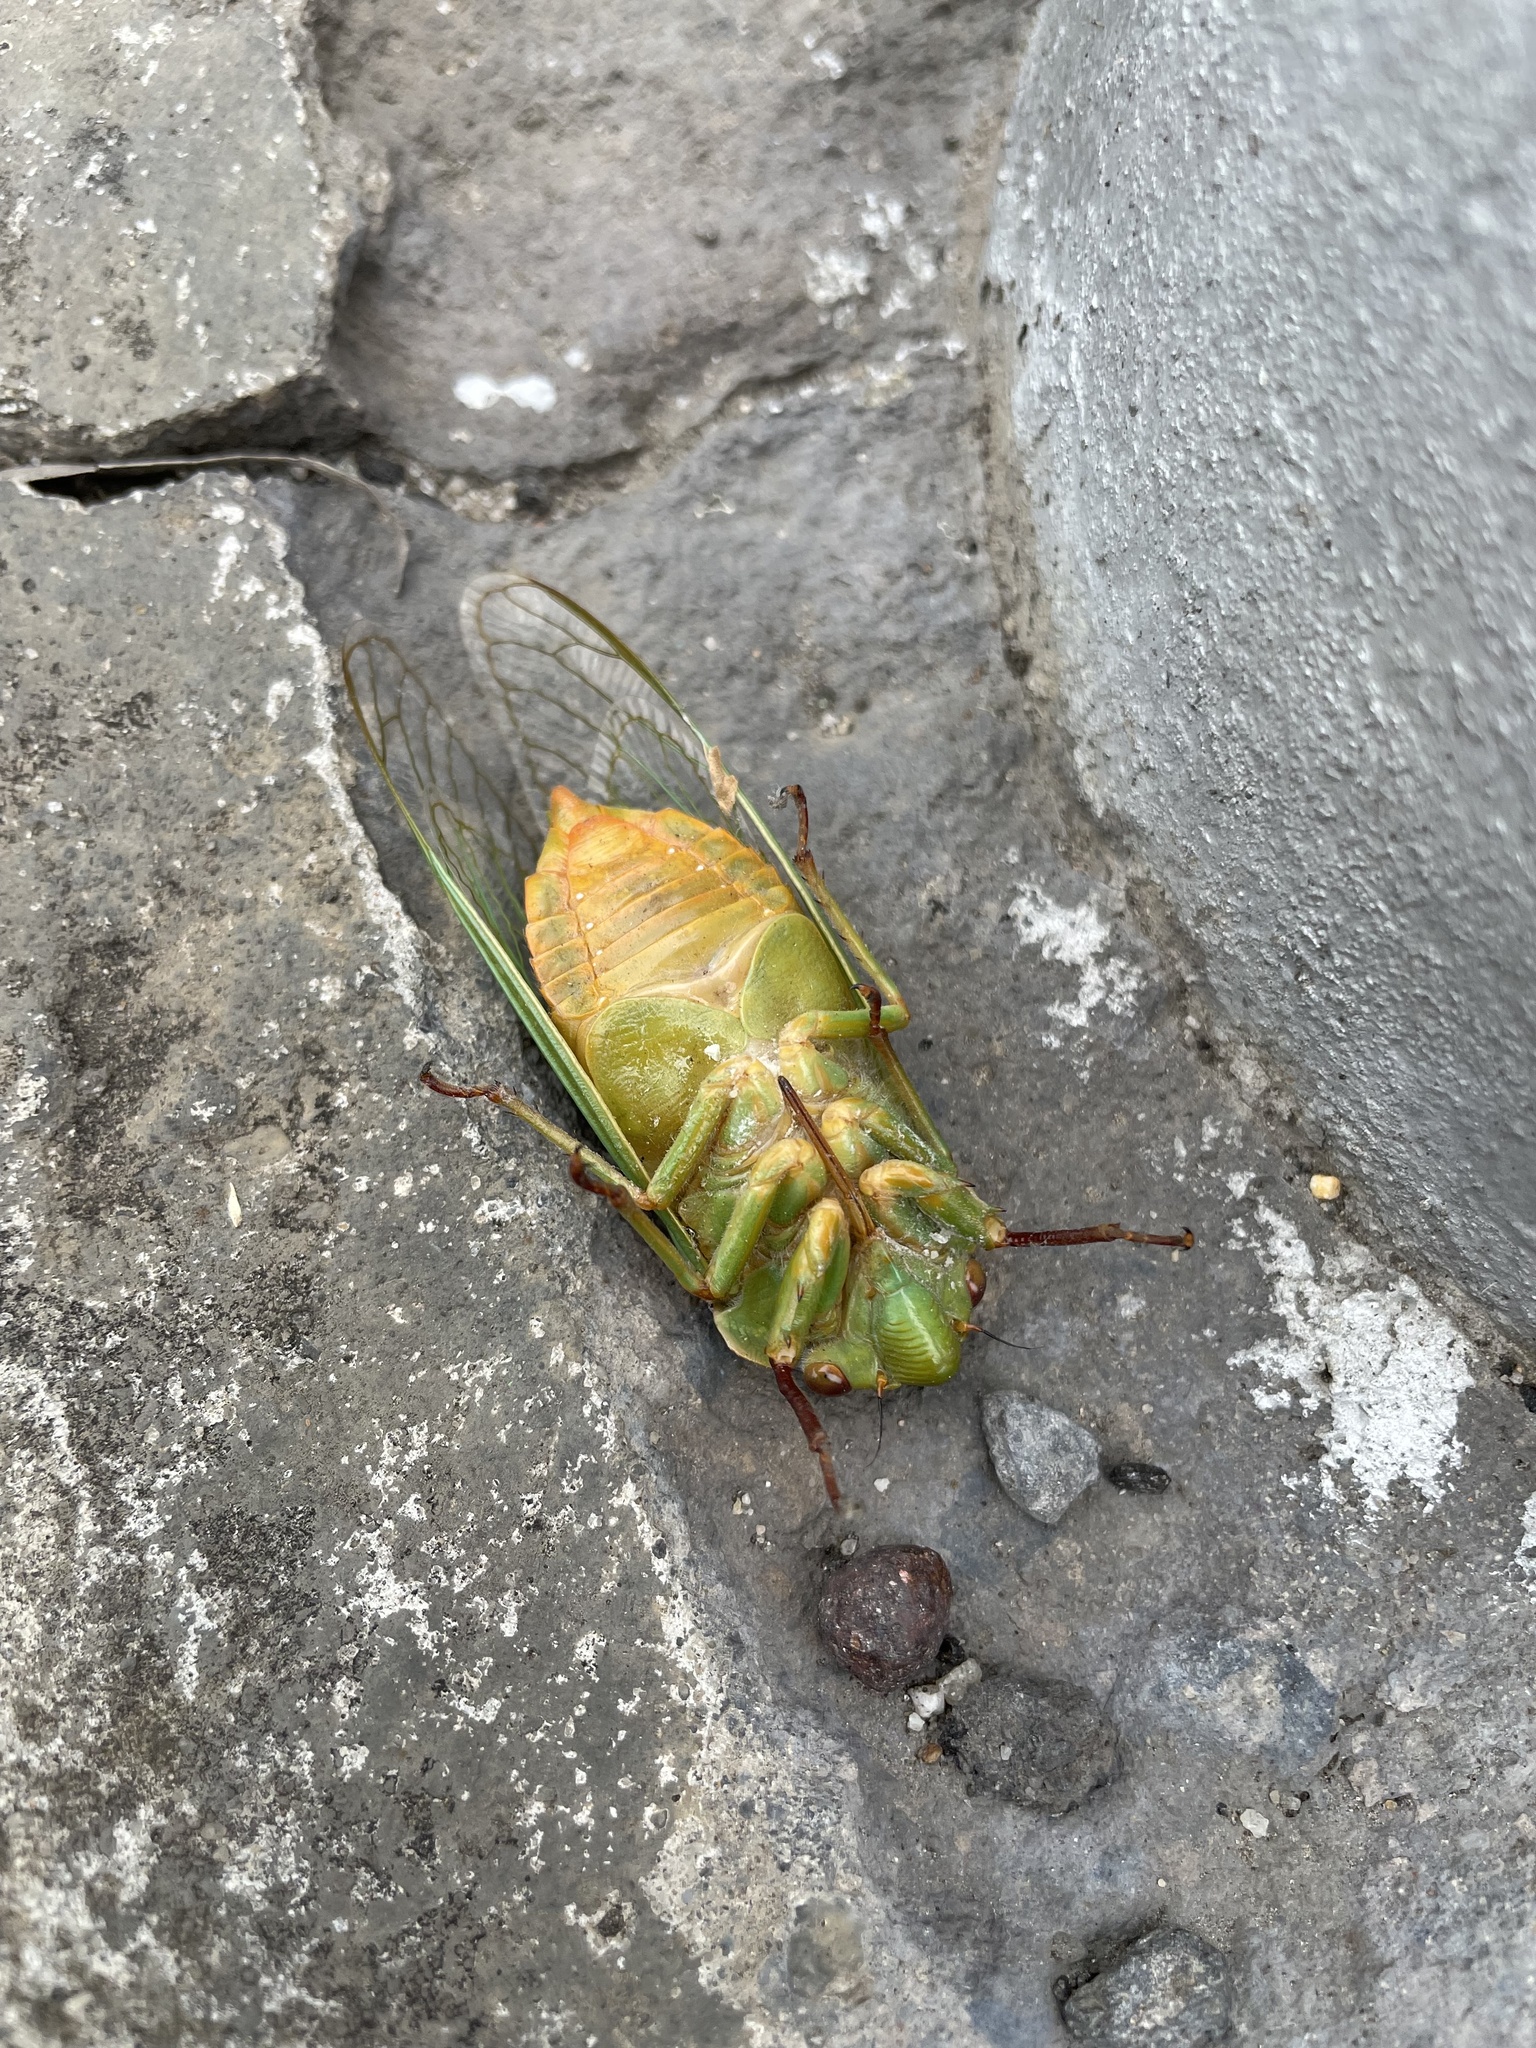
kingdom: Animalia
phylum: Arthropoda
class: Insecta
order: Hemiptera
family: Cicadidae
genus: Cyclochila
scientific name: Cyclochila australasiae
